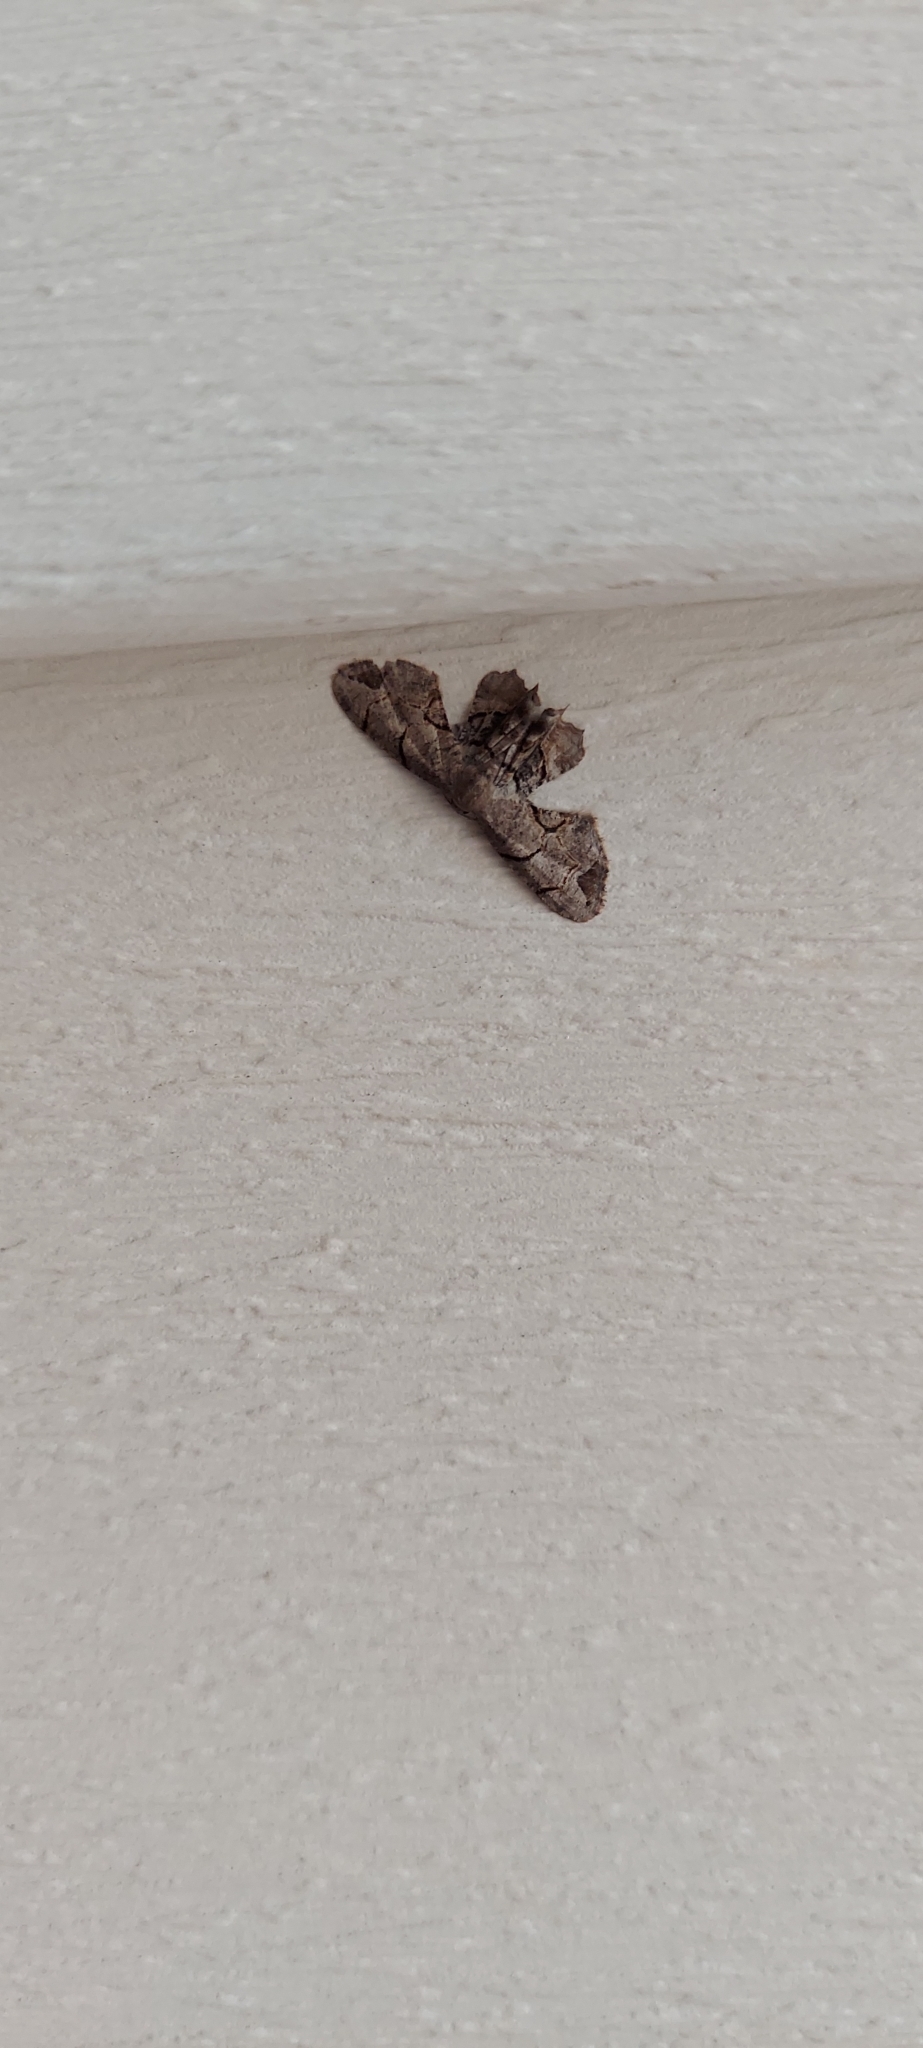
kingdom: Animalia
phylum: Arthropoda
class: Insecta
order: Lepidoptera
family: Uraniidae
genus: Epiplema
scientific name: Epiplema Callizzia amorata
